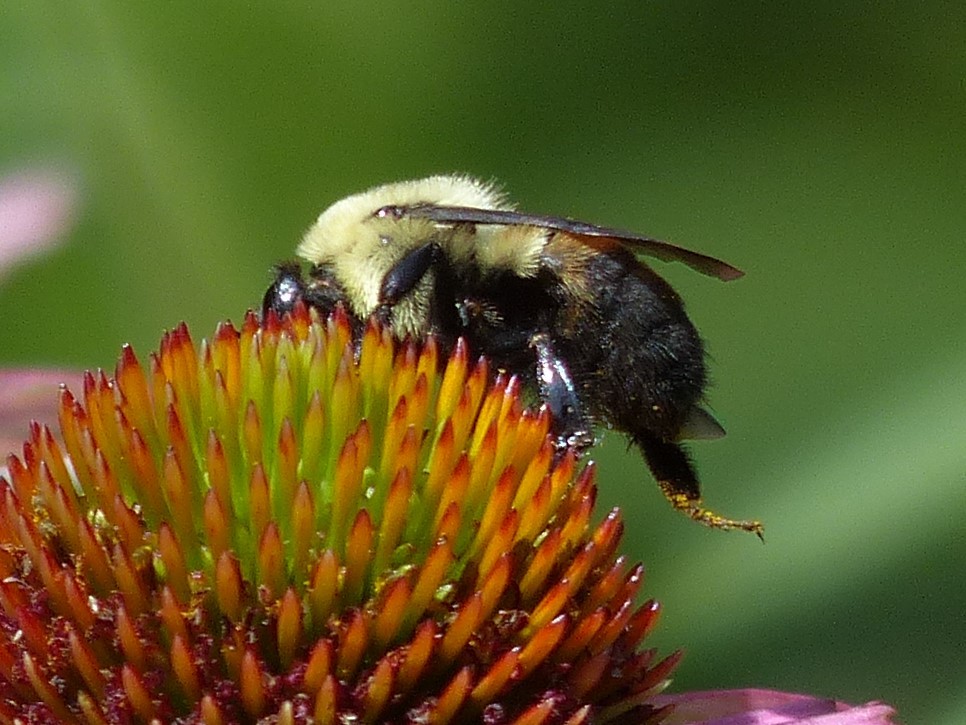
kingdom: Animalia
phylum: Arthropoda
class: Insecta
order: Hymenoptera
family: Apidae
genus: Bombus
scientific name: Bombus griseocollis
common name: Brown-belted bumble bee
